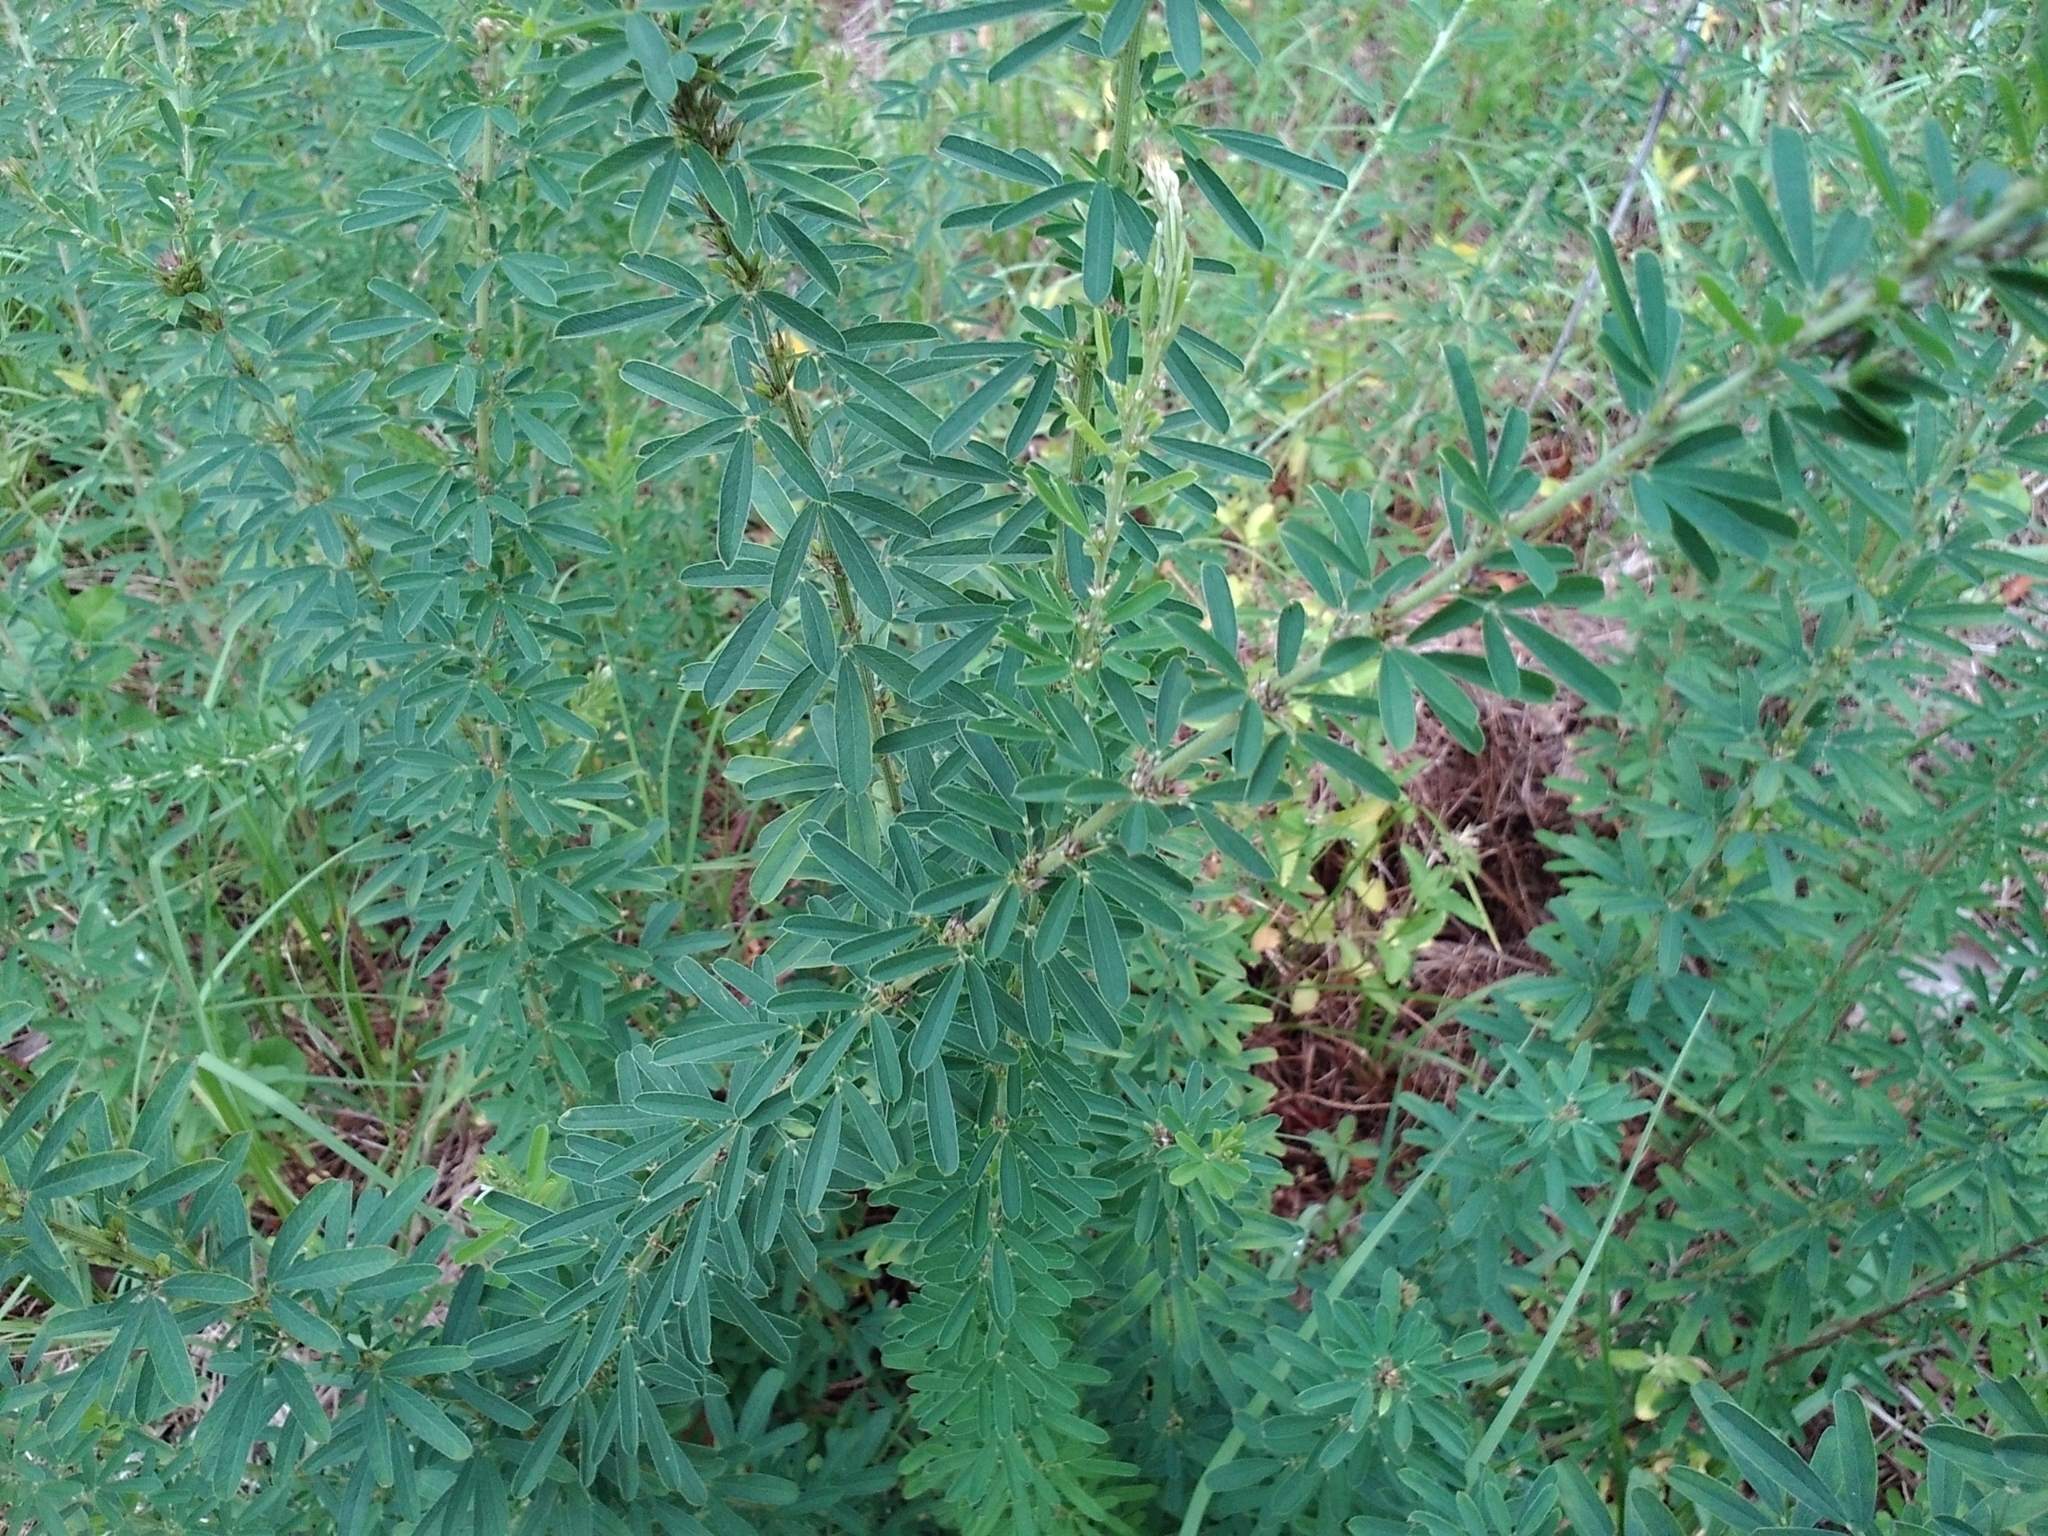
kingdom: Plantae
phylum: Tracheophyta
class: Magnoliopsida
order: Fabales
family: Fabaceae
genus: Lespedeza
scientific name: Lespedeza cuneata
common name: Chinese bush-clover
